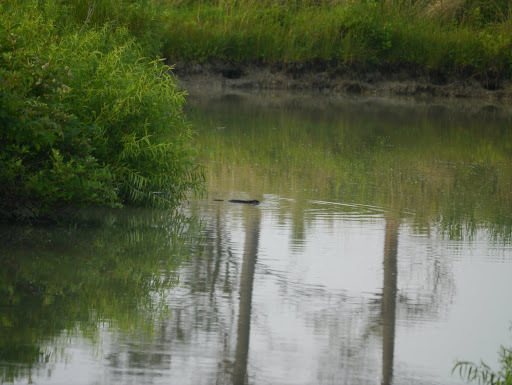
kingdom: Animalia
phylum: Chordata
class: Mammalia
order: Rodentia
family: Cricetidae
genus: Ondatra
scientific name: Ondatra zibethicus
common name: Muskrat
